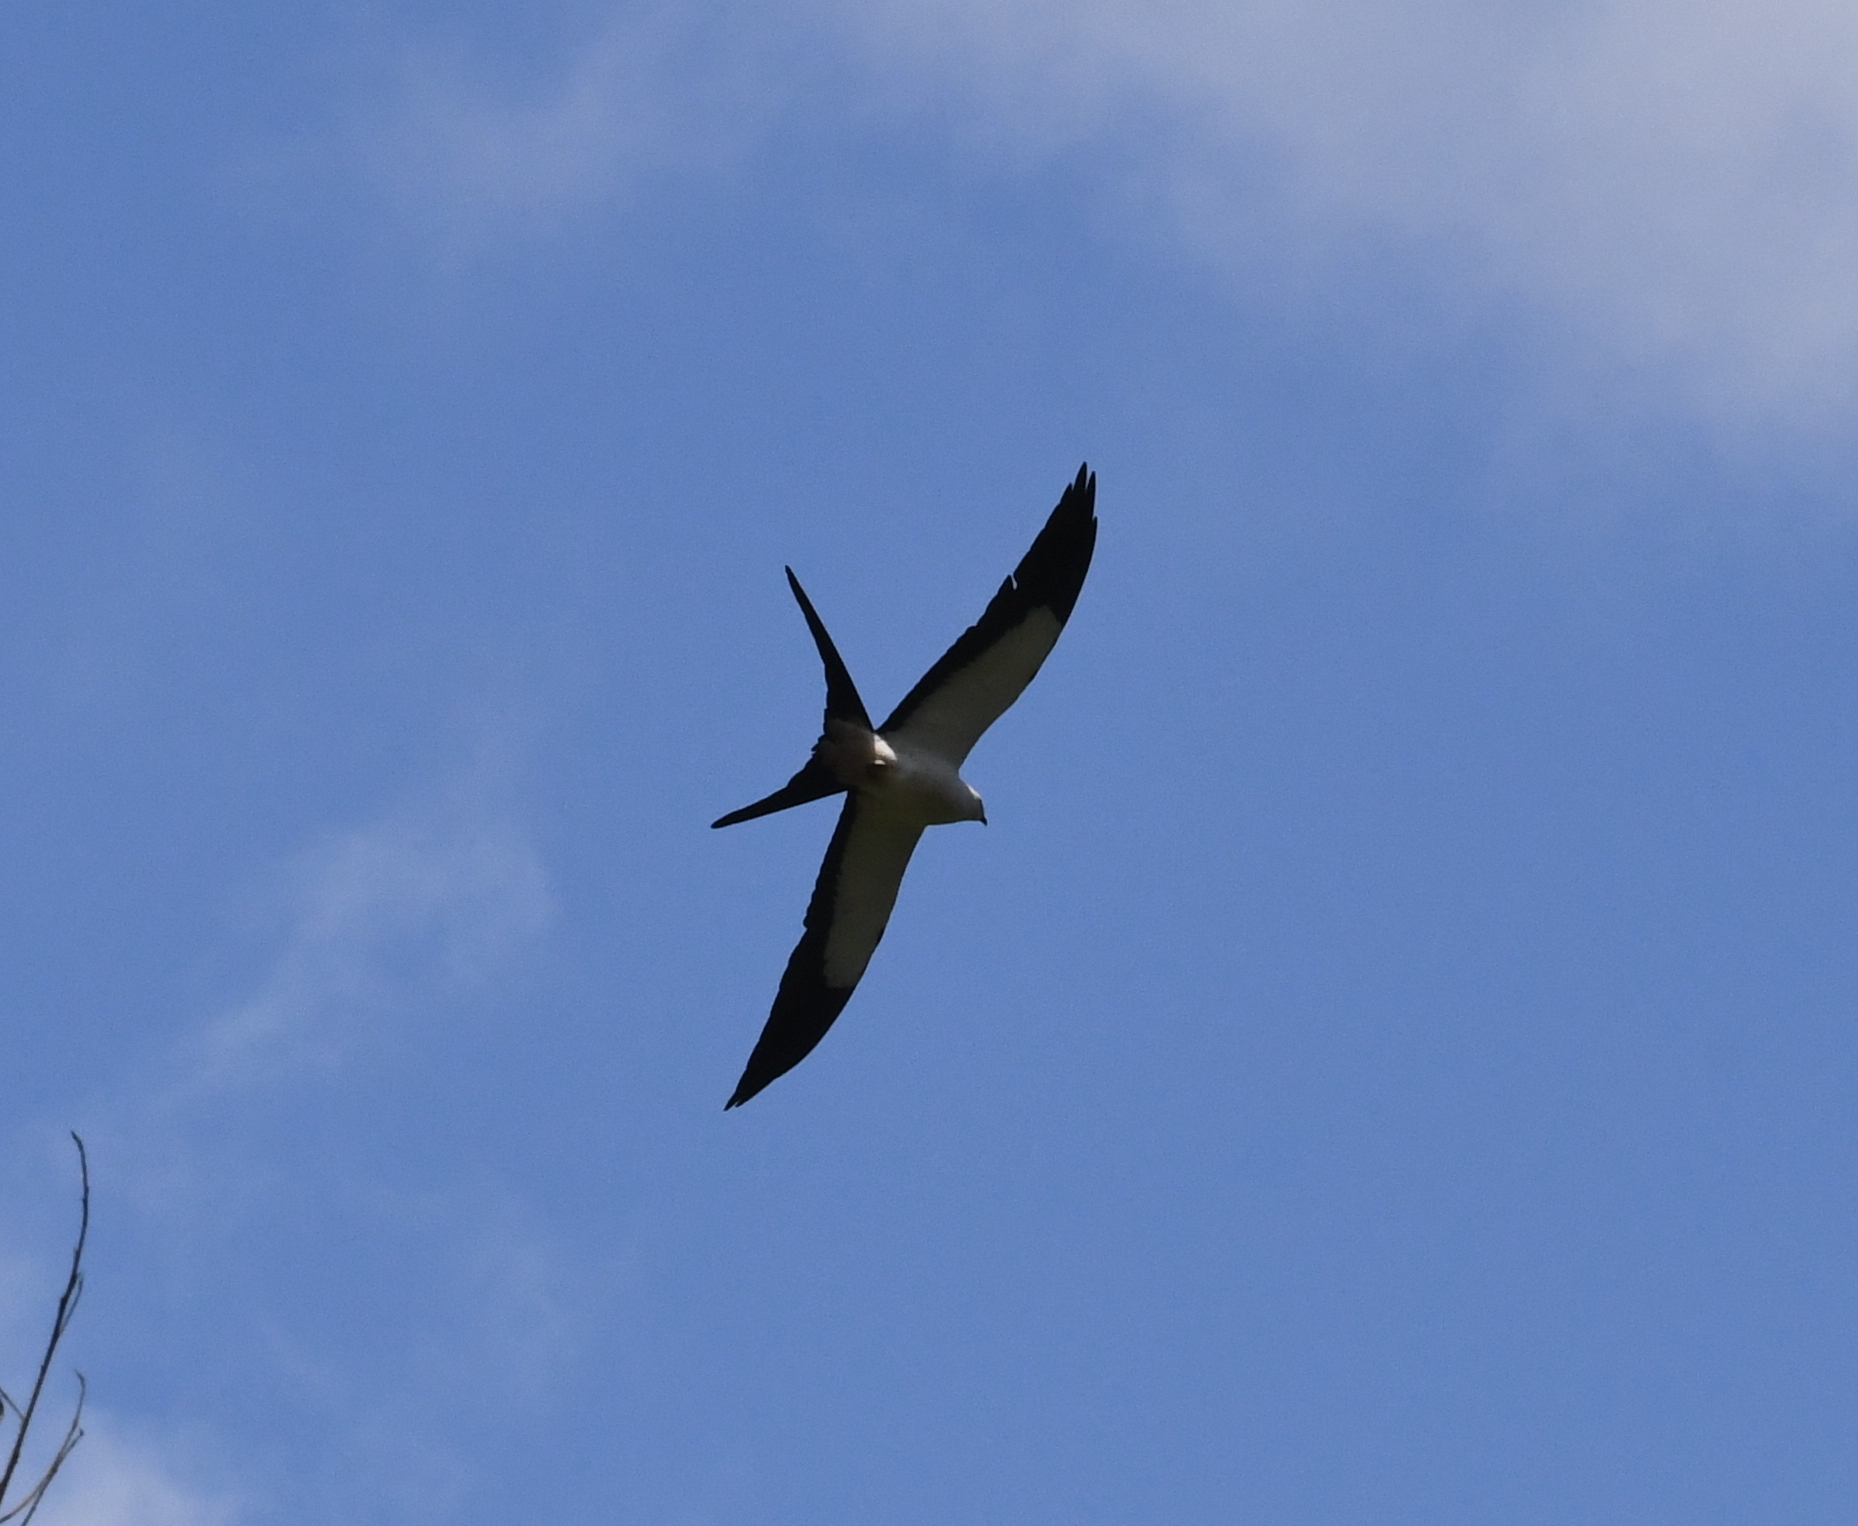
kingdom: Animalia
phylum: Chordata
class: Aves
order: Accipitriformes
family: Accipitridae
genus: Elanoides
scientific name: Elanoides forficatus
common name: Swallow-tailed kite
